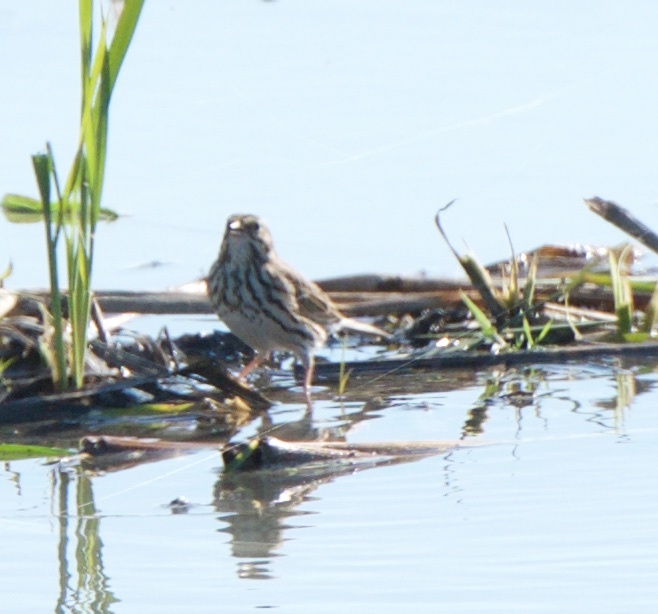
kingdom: Animalia
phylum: Chordata
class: Aves
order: Passeriformes
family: Passerellidae
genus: Passerculus
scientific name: Passerculus sandwichensis
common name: Savannah sparrow
